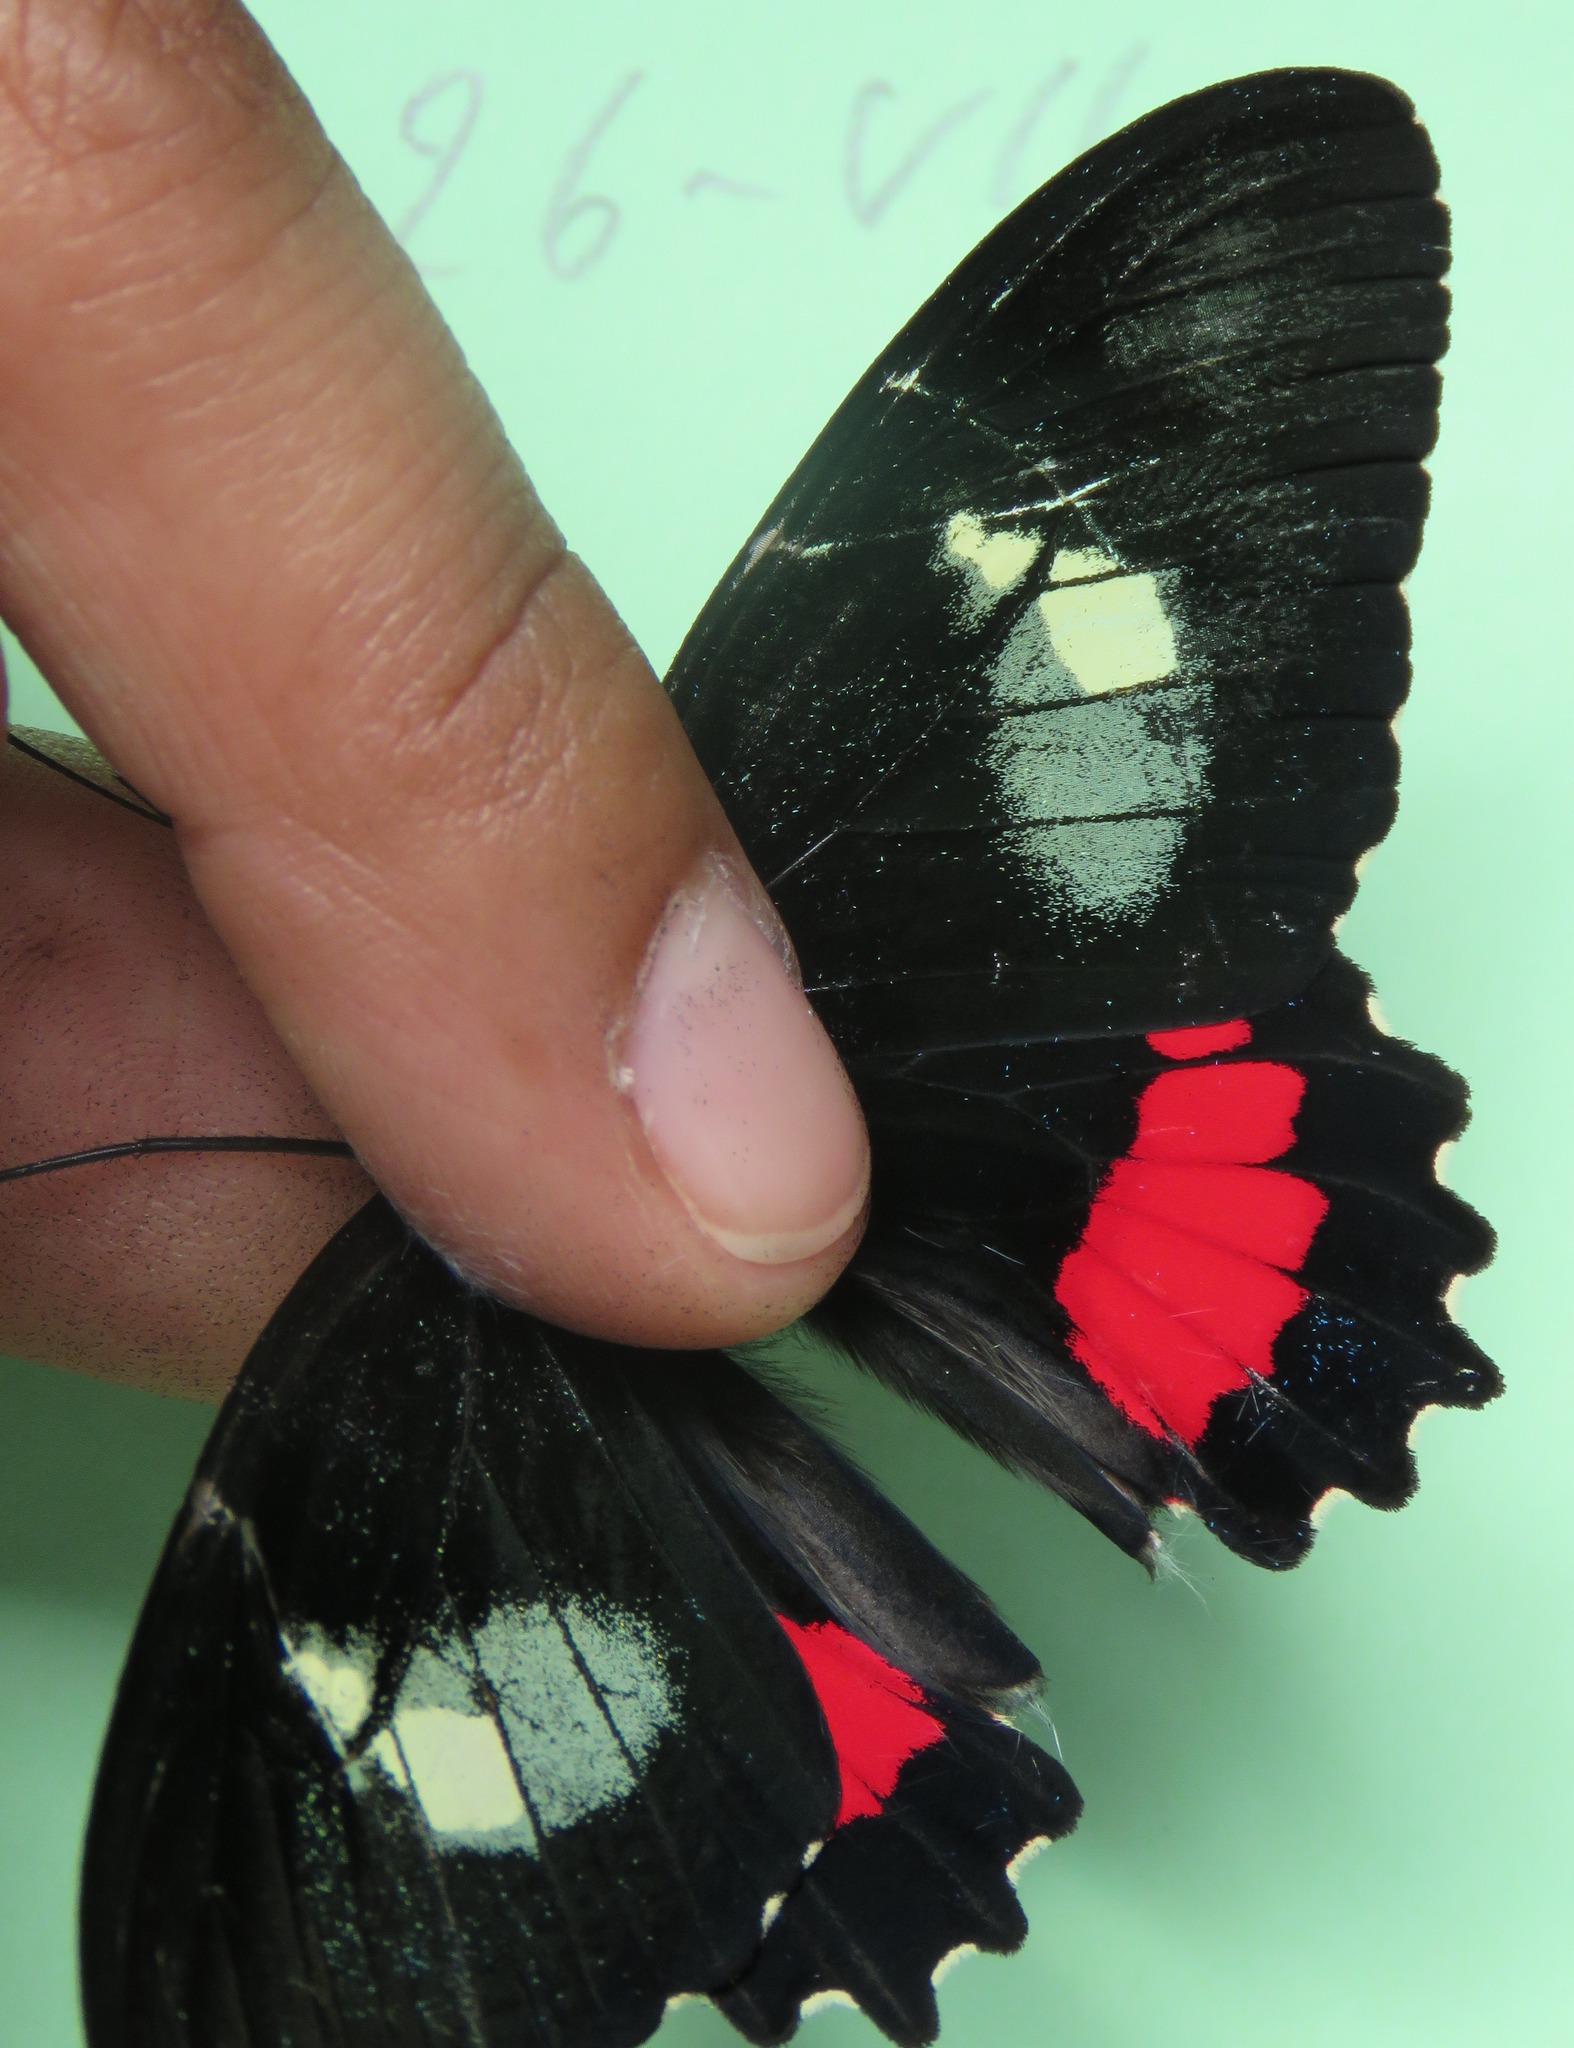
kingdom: Animalia
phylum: Arthropoda
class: Insecta
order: Lepidoptera
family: Papilionidae
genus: Parides
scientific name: Parides iphidamas
